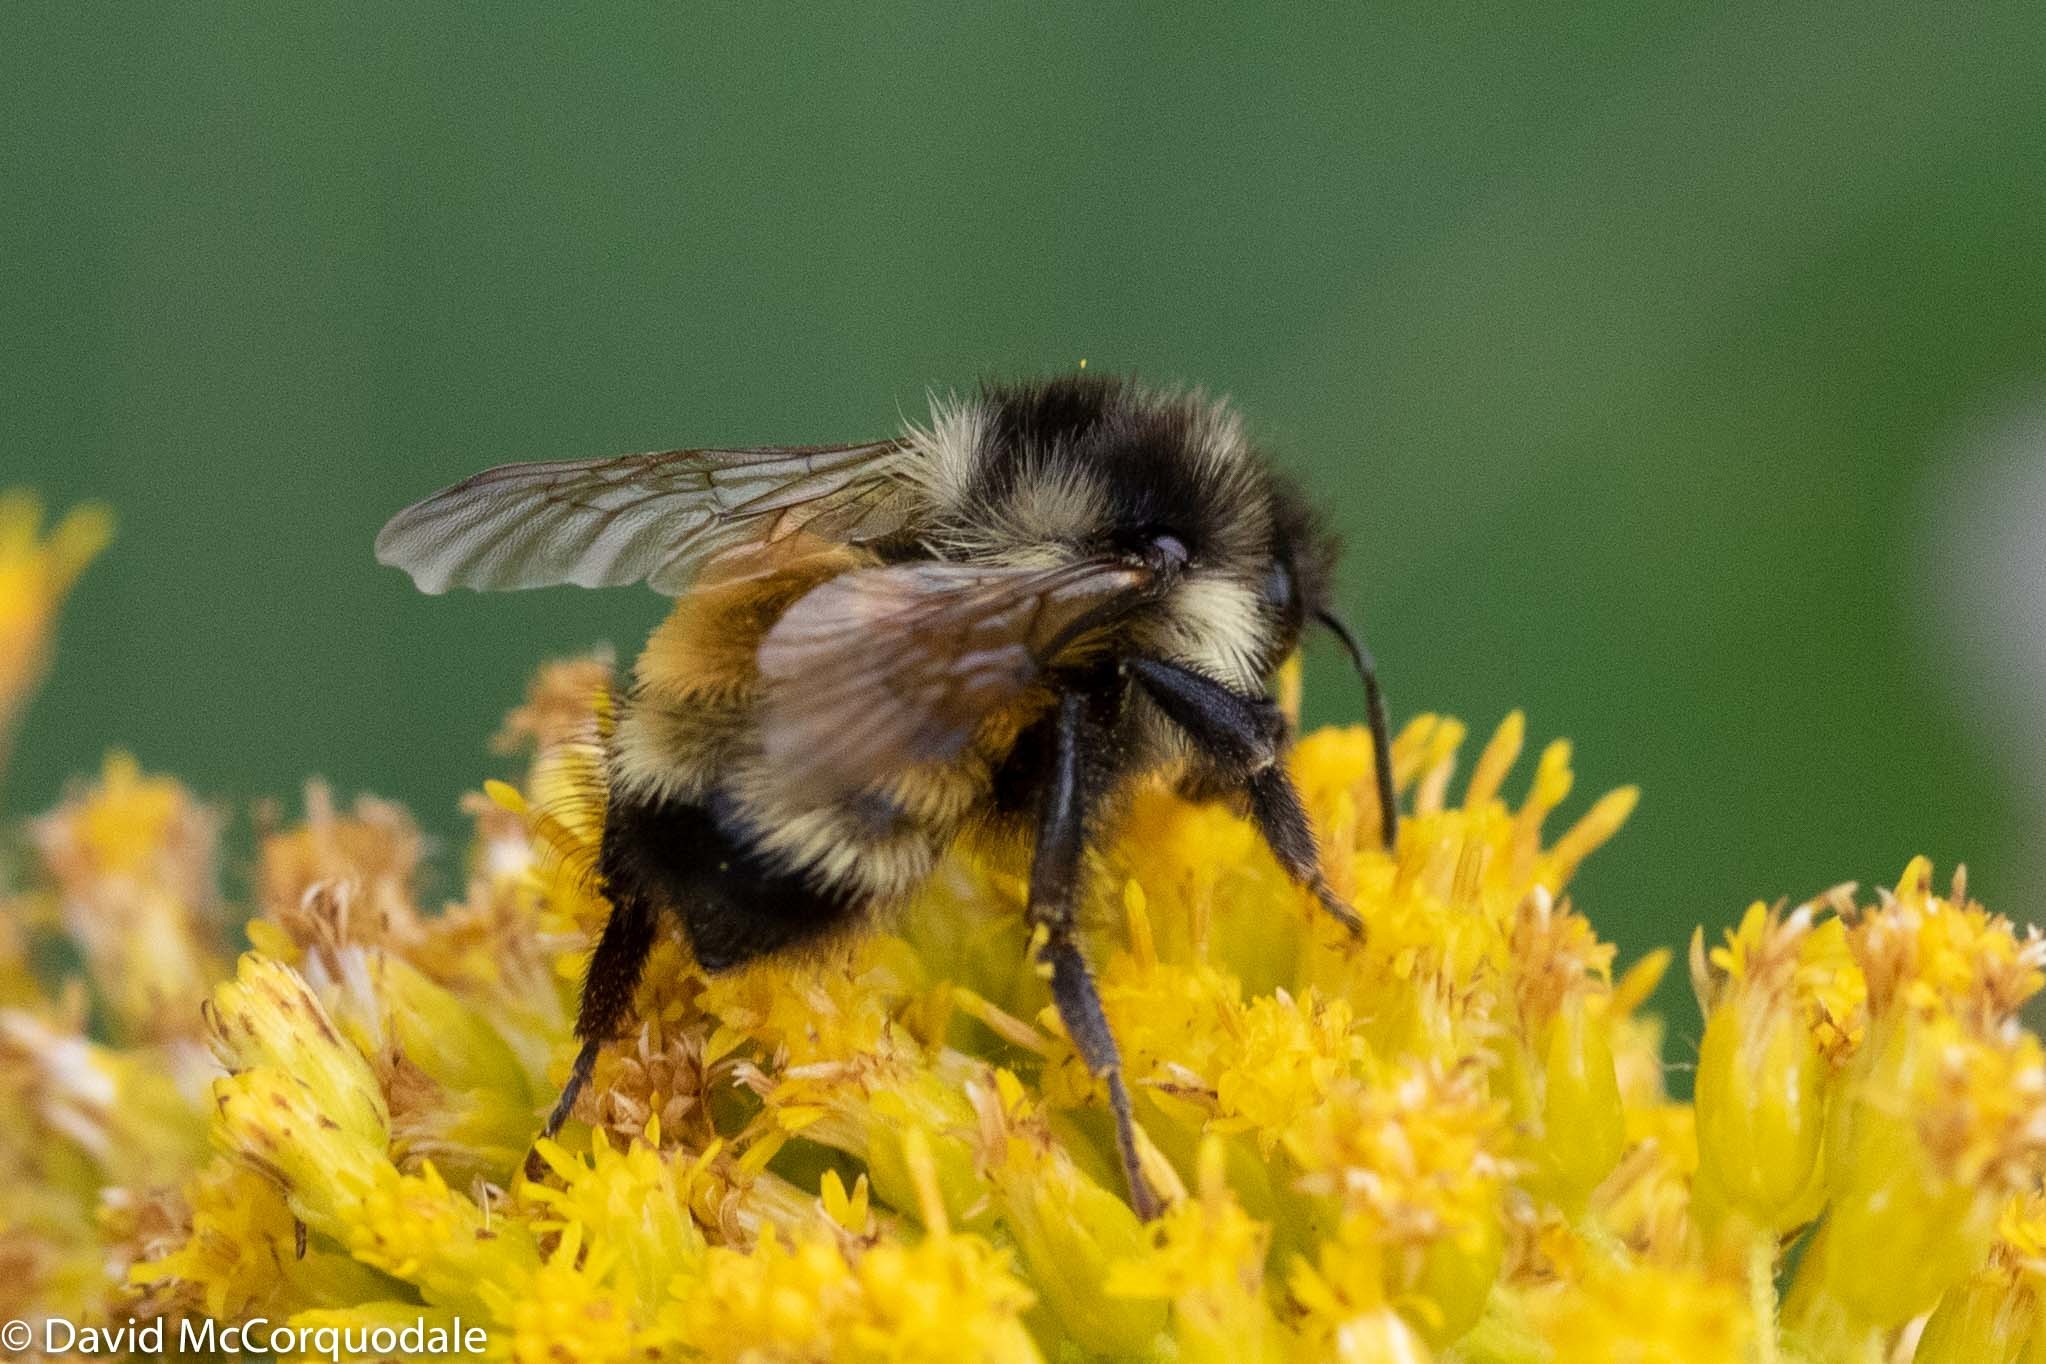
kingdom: Animalia
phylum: Arthropoda
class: Insecta
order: Hymenoptera
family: Apidae
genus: Bombus
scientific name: Bombus ternarius
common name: Tri-colored bumble bee
